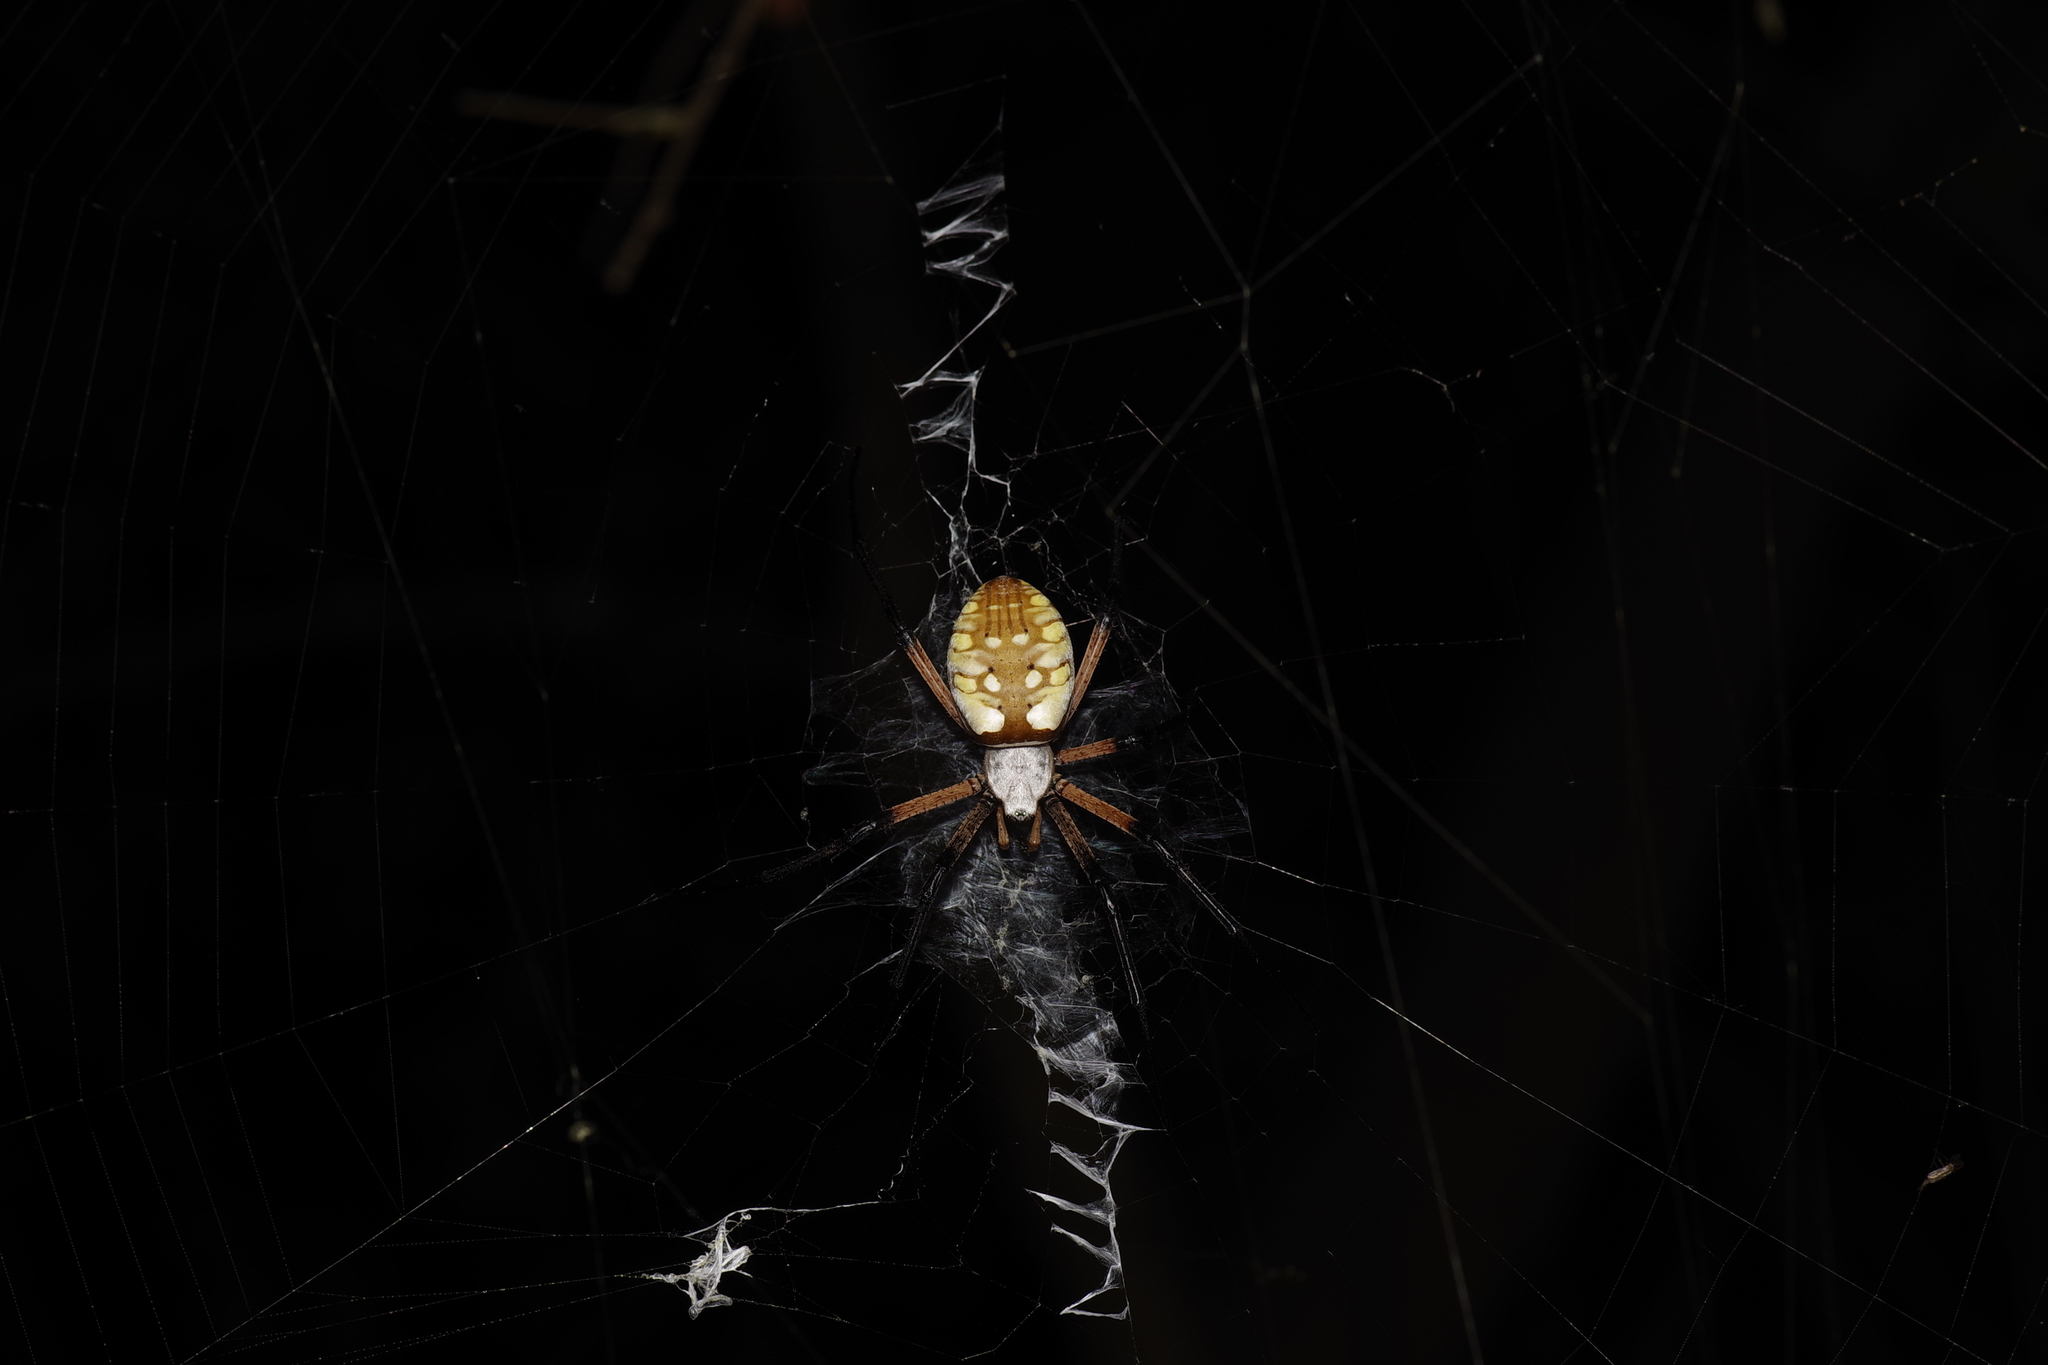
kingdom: Animalia
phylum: Arthropoda
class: Arachnida
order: Araneae
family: Araneidae
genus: Argiope
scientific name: Argiope aurantia
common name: Orb weavers
